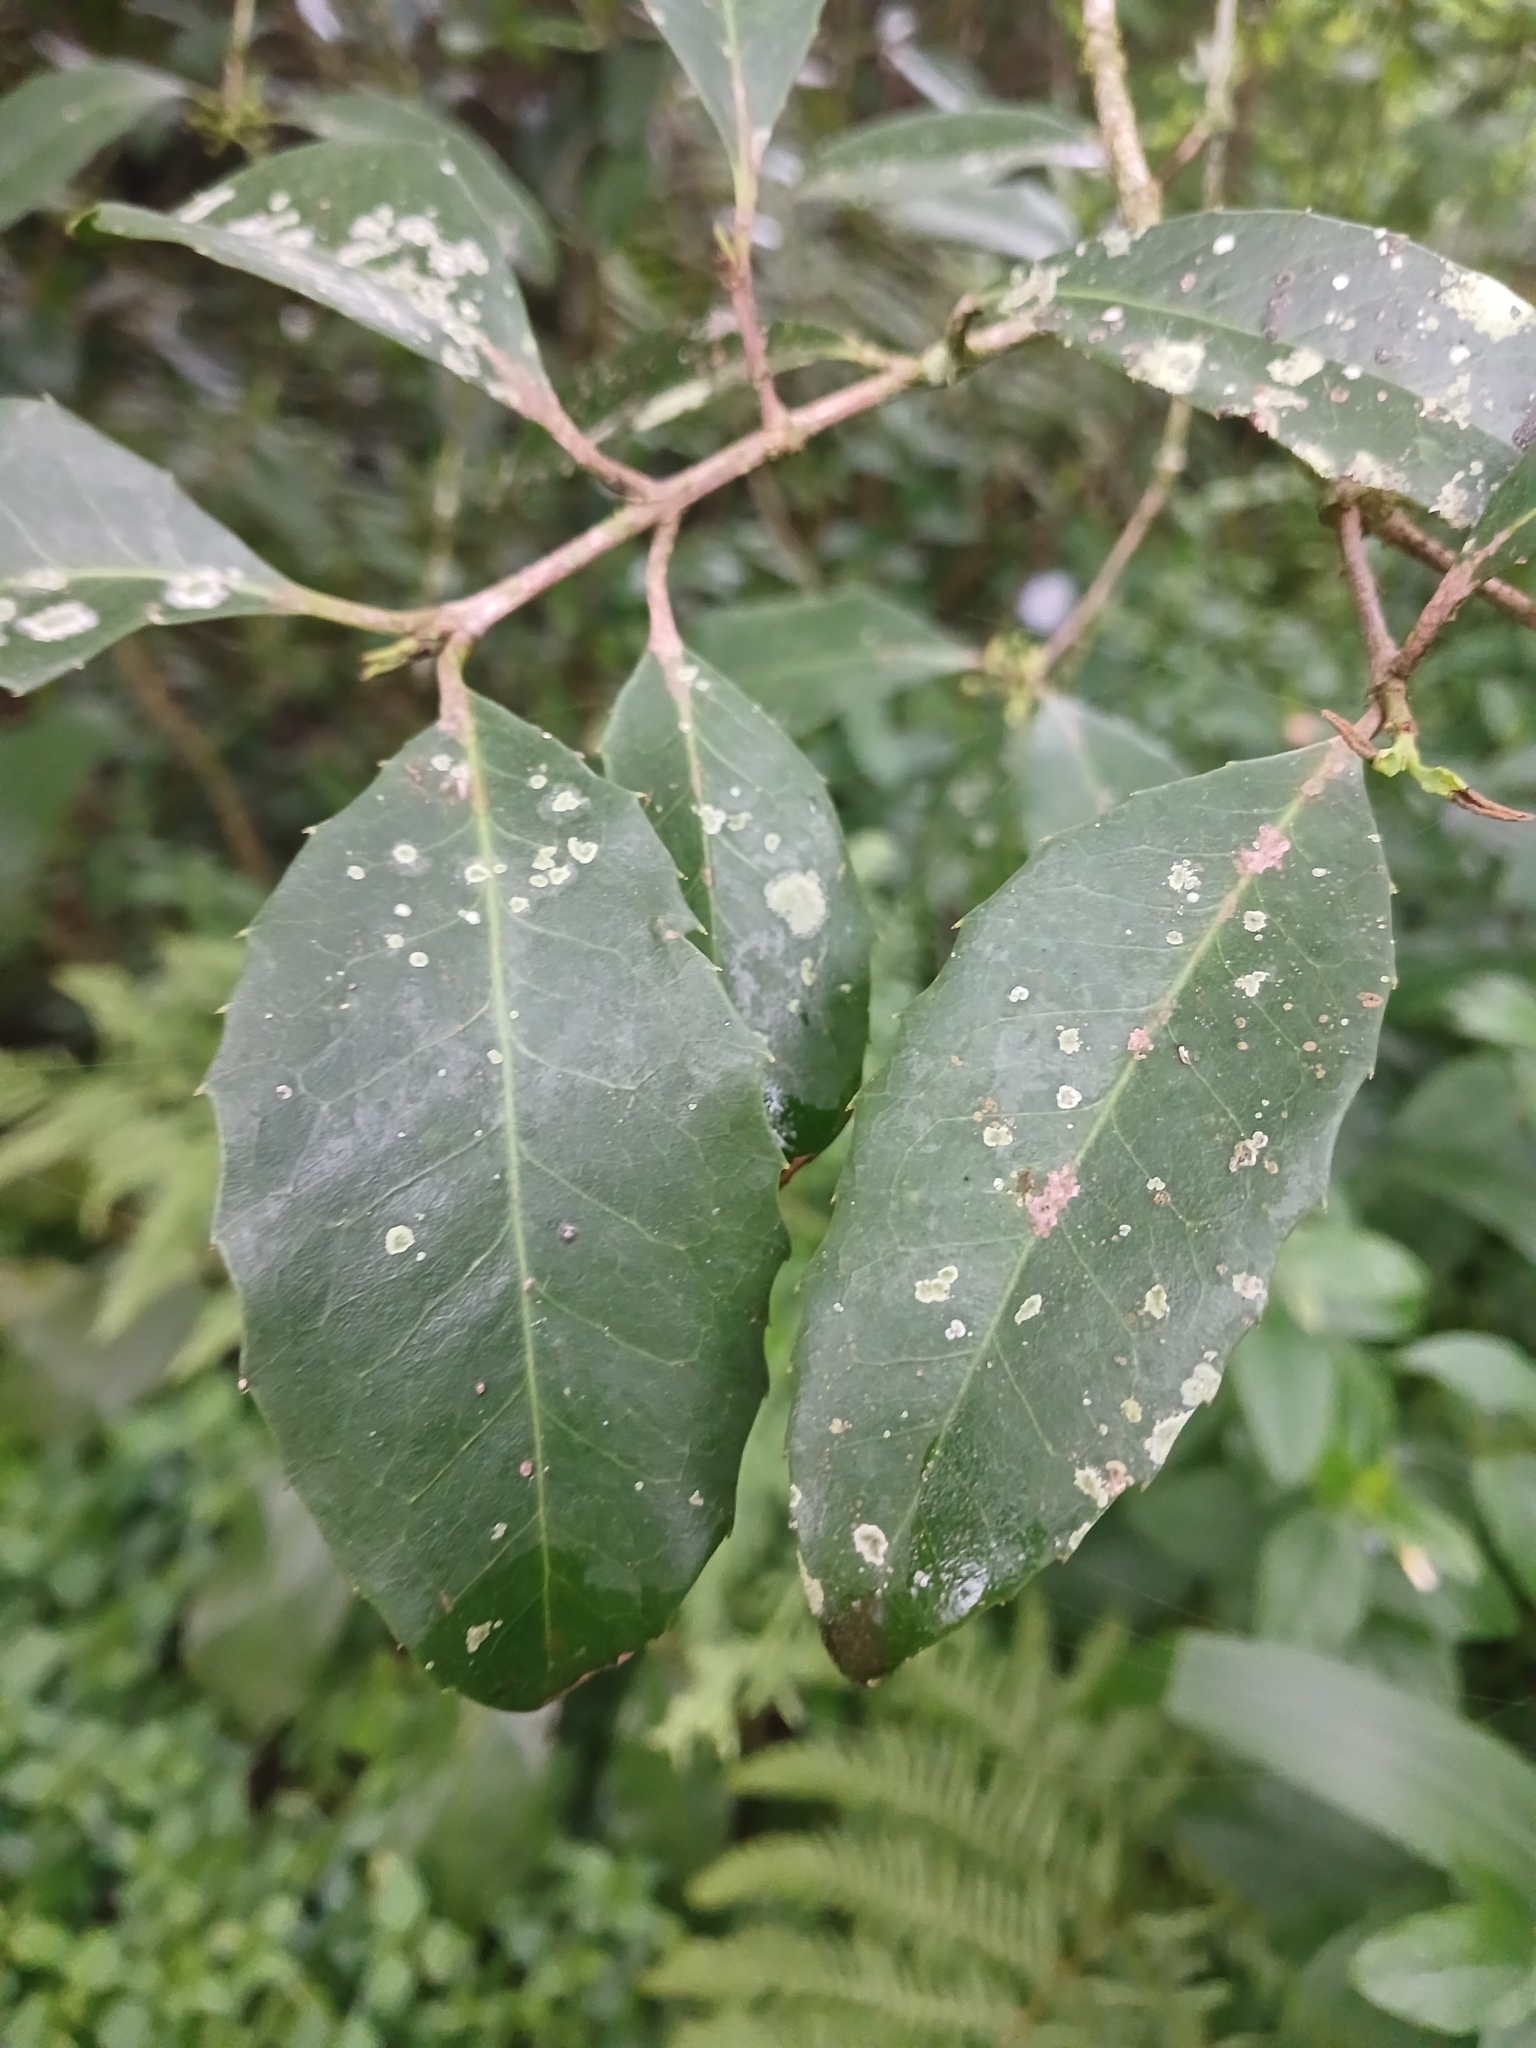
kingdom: Plantae
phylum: Tracheophyta
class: Magnoliopsida
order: Malpighiales
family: Achariaceae
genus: Rawsonia
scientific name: Rawsonia lucida
